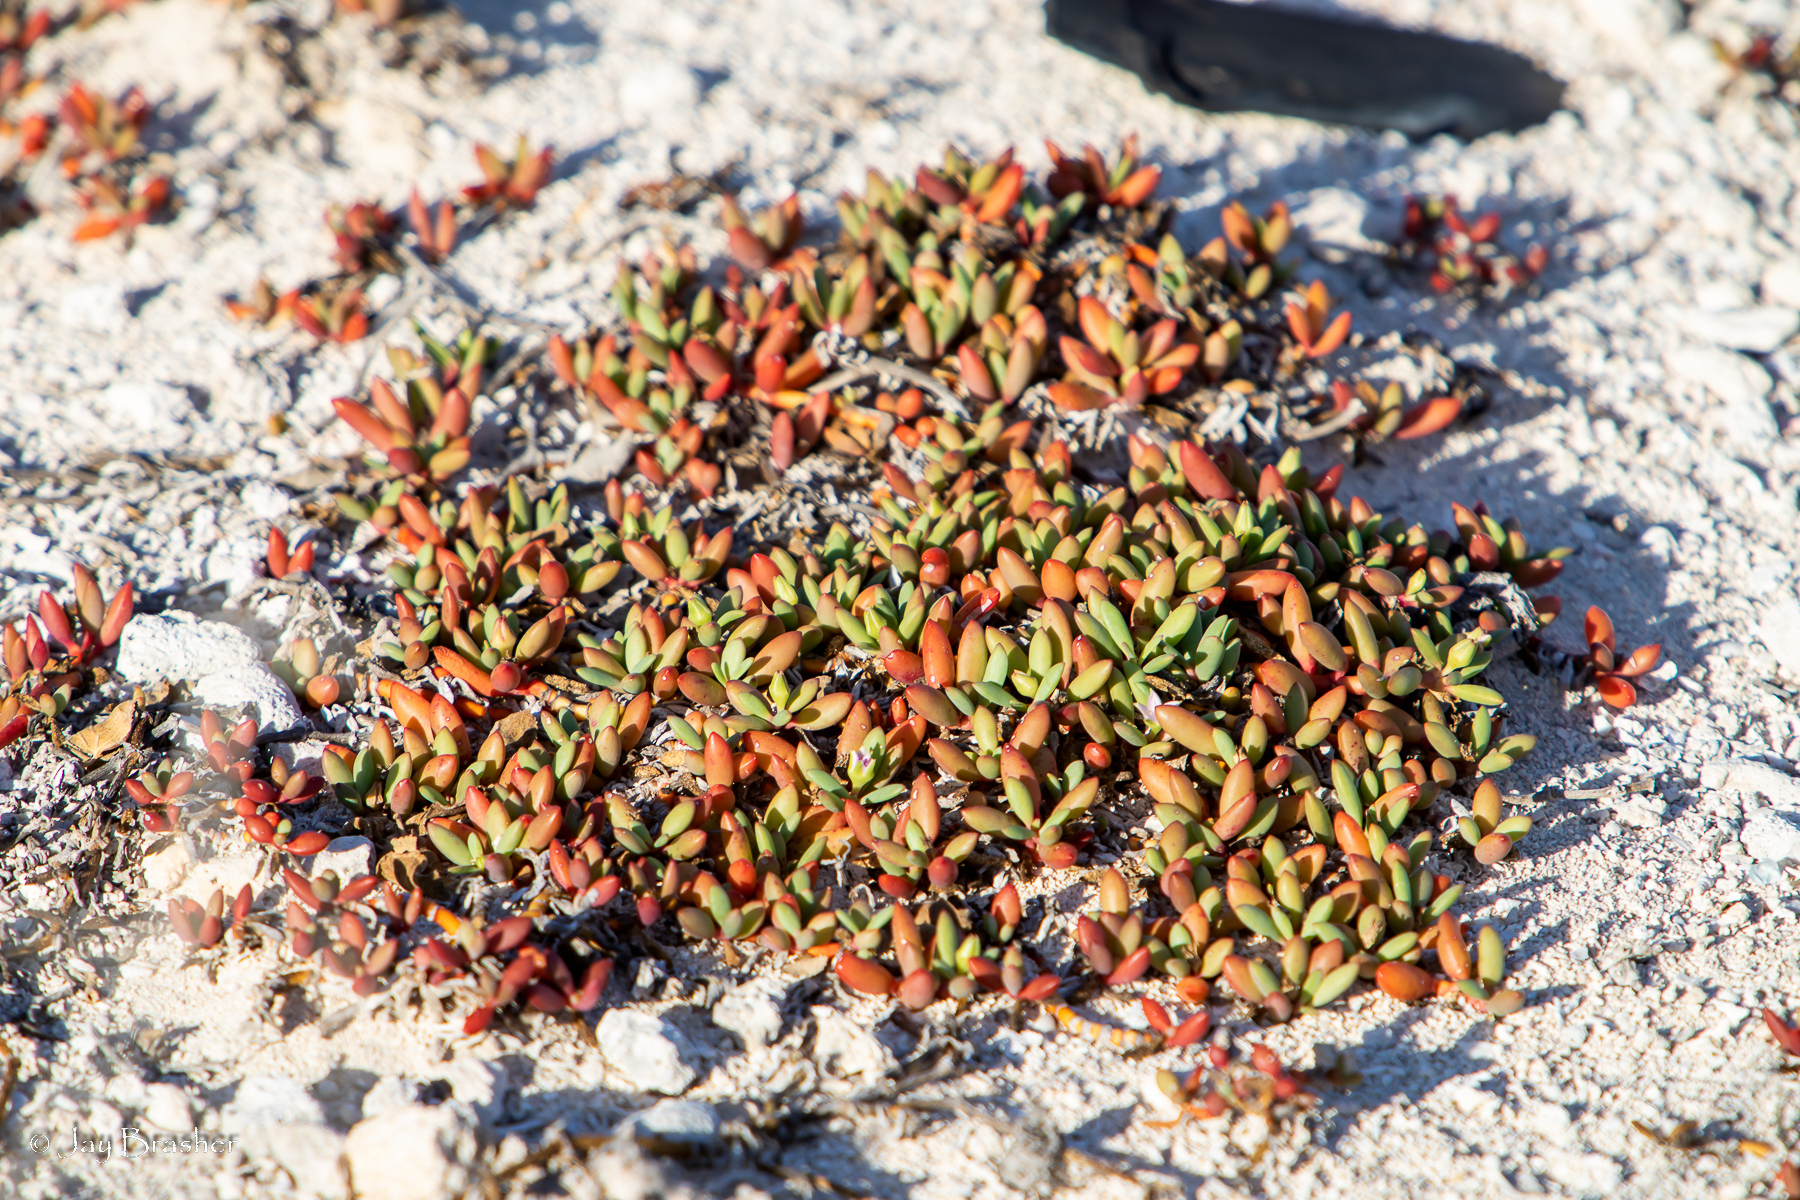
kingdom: Plantae
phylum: Tracheophyta
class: Magnoliopsida
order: Caryophyllales
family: Aizoaceae
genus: Sesuvium
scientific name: Sesuvium portulacastrum
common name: Sea-purslane
